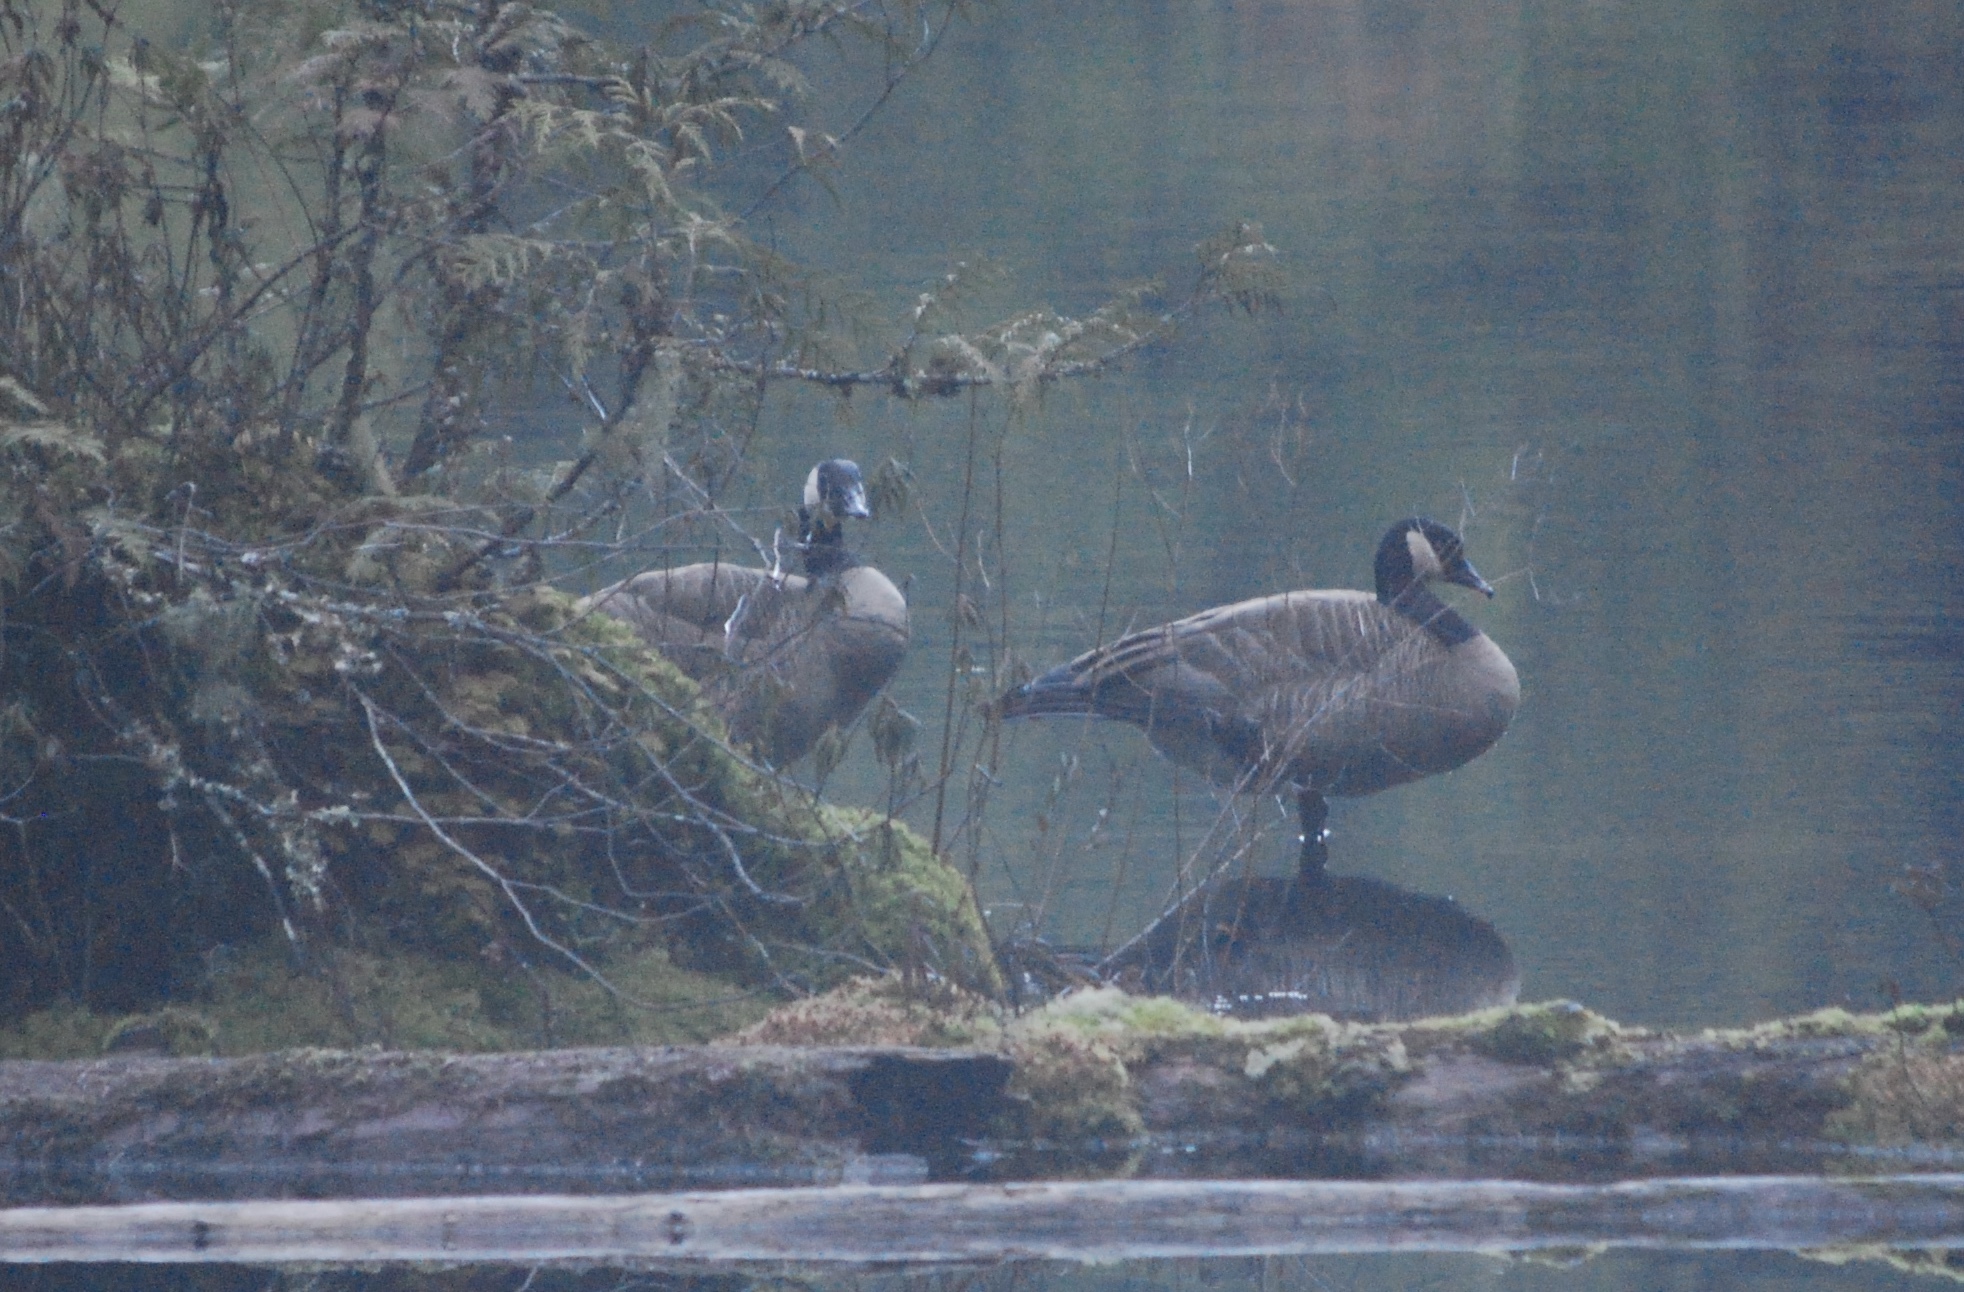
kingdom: Animalia
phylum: Chordata
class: Aves
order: Anseriformes
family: Anatidae
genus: Branta
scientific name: Branta canadensis
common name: Canada goose
